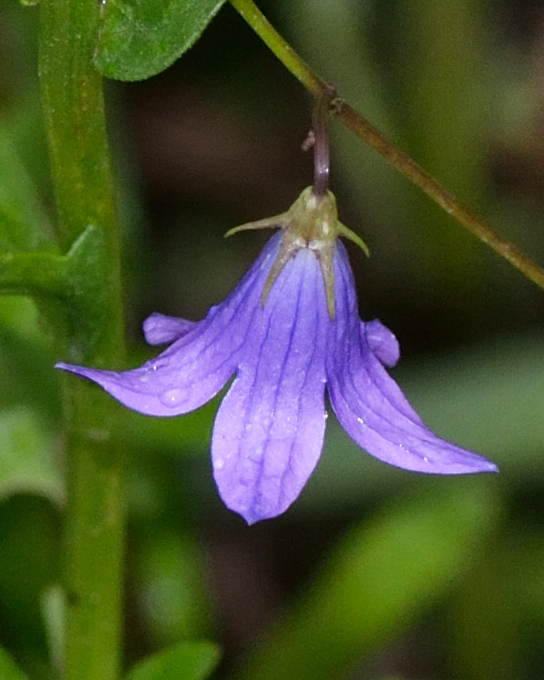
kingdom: Plantae
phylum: Tracheophyta
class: Magnoliopsida
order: Asterales
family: Campanulaceae
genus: Campanula
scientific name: Campanula patula
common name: Spreading bellflower
